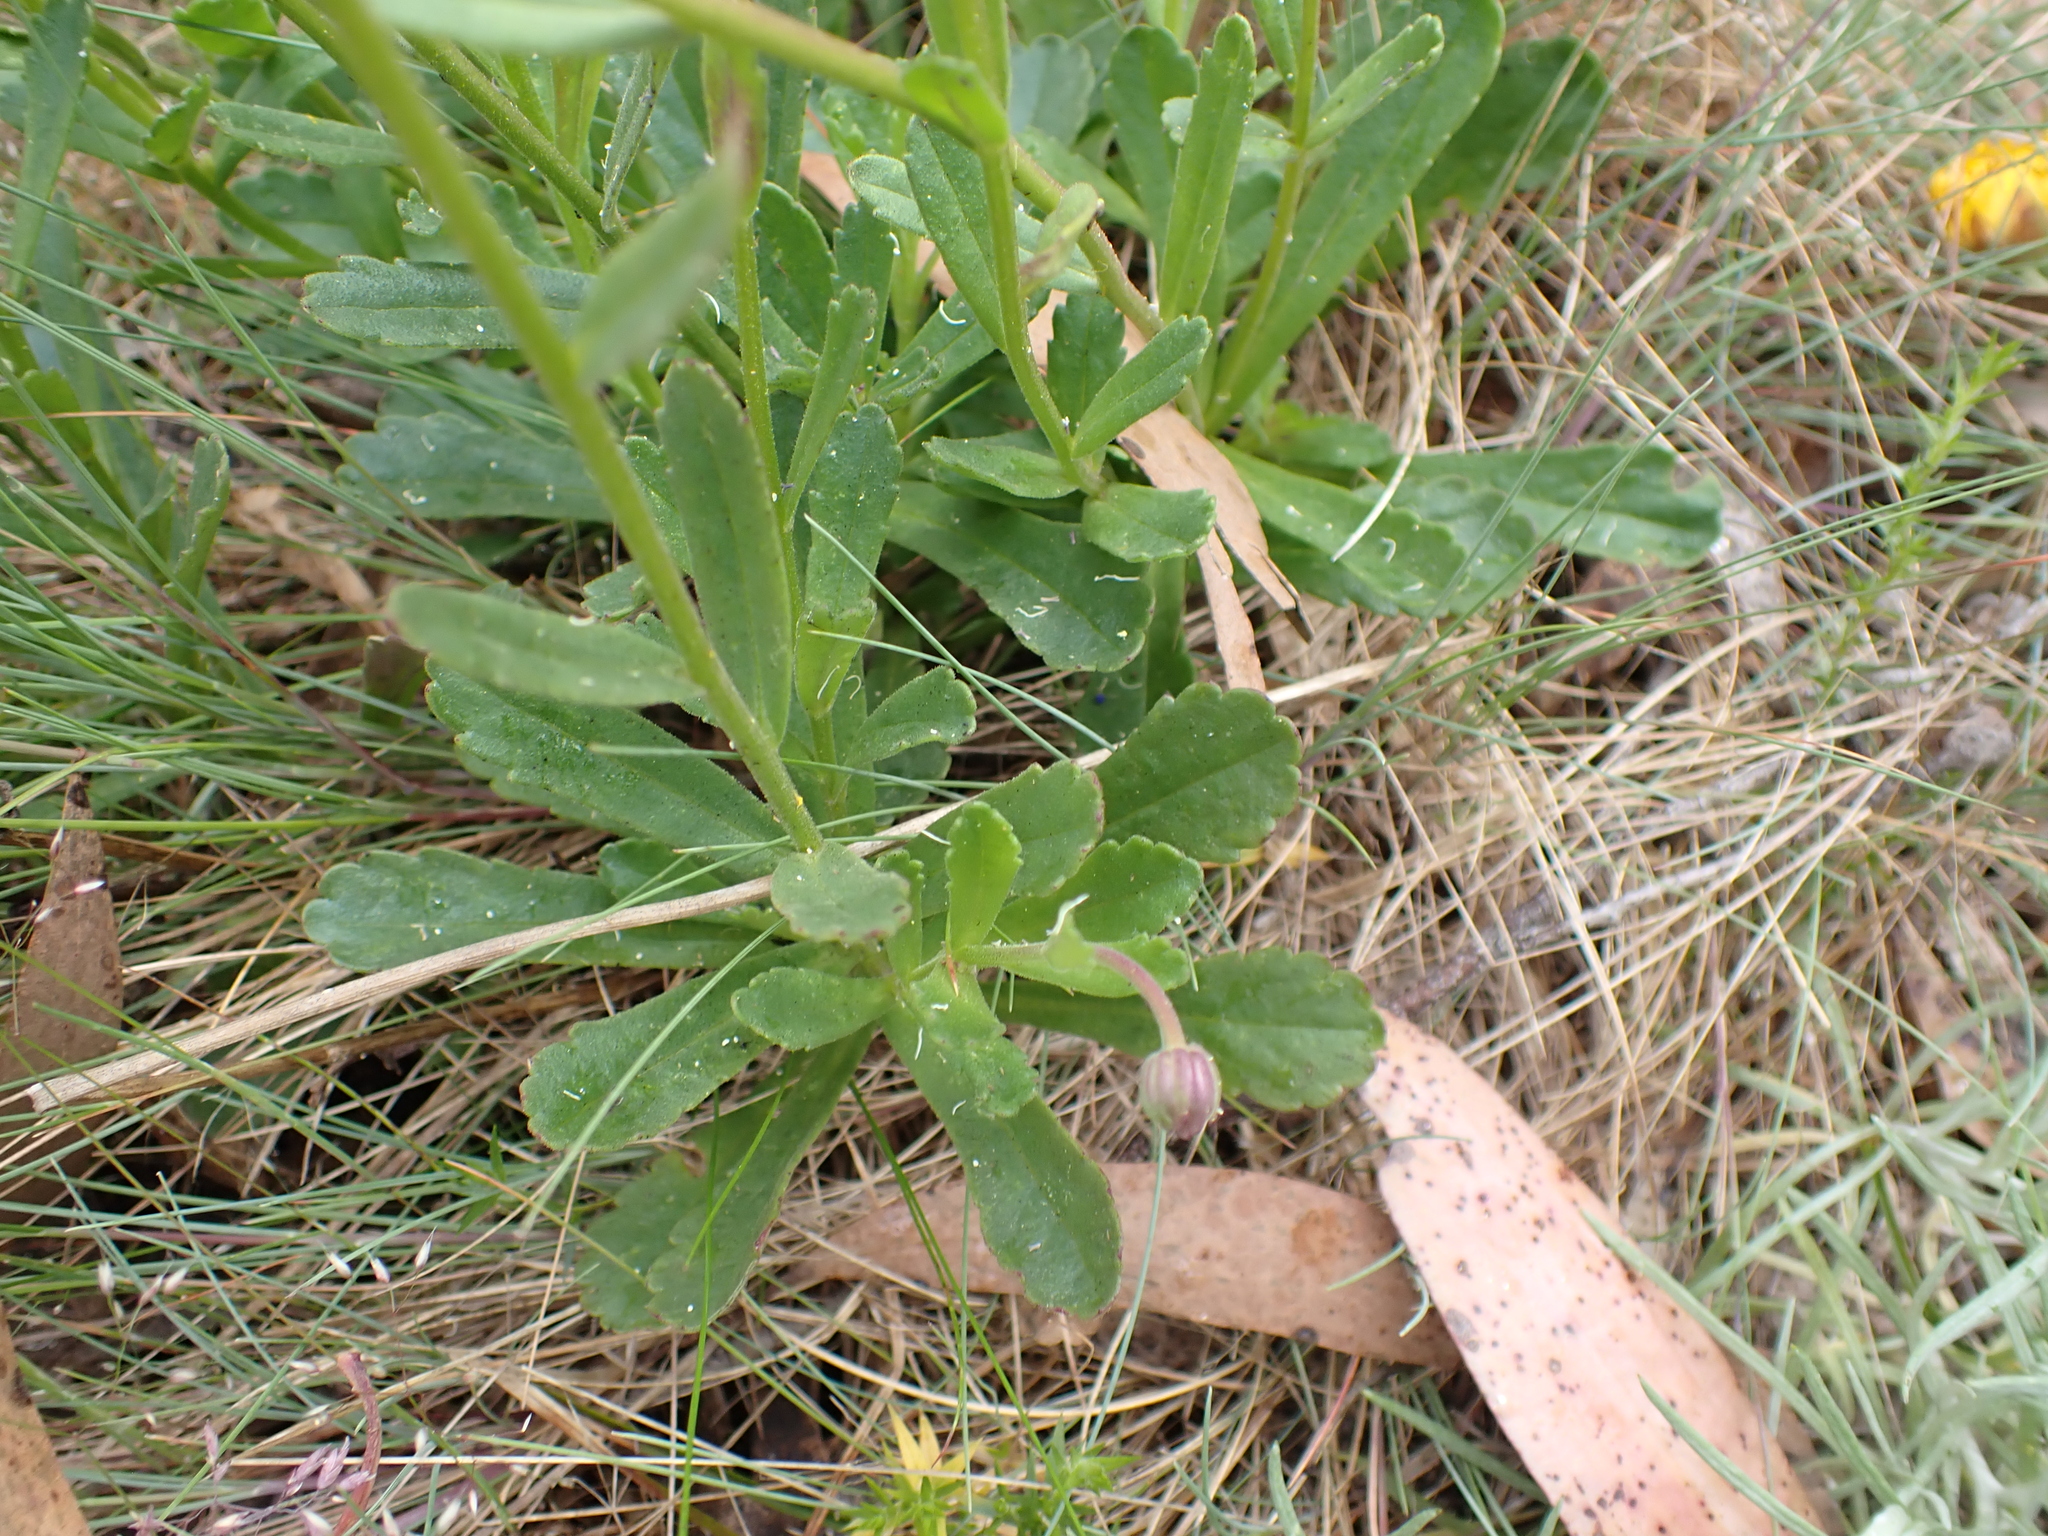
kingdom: Plantae
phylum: Tracheophyta
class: Magnoliopsida
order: Asterales
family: Asteraceae
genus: Brachyscome
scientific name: Brachyscome spathulata
